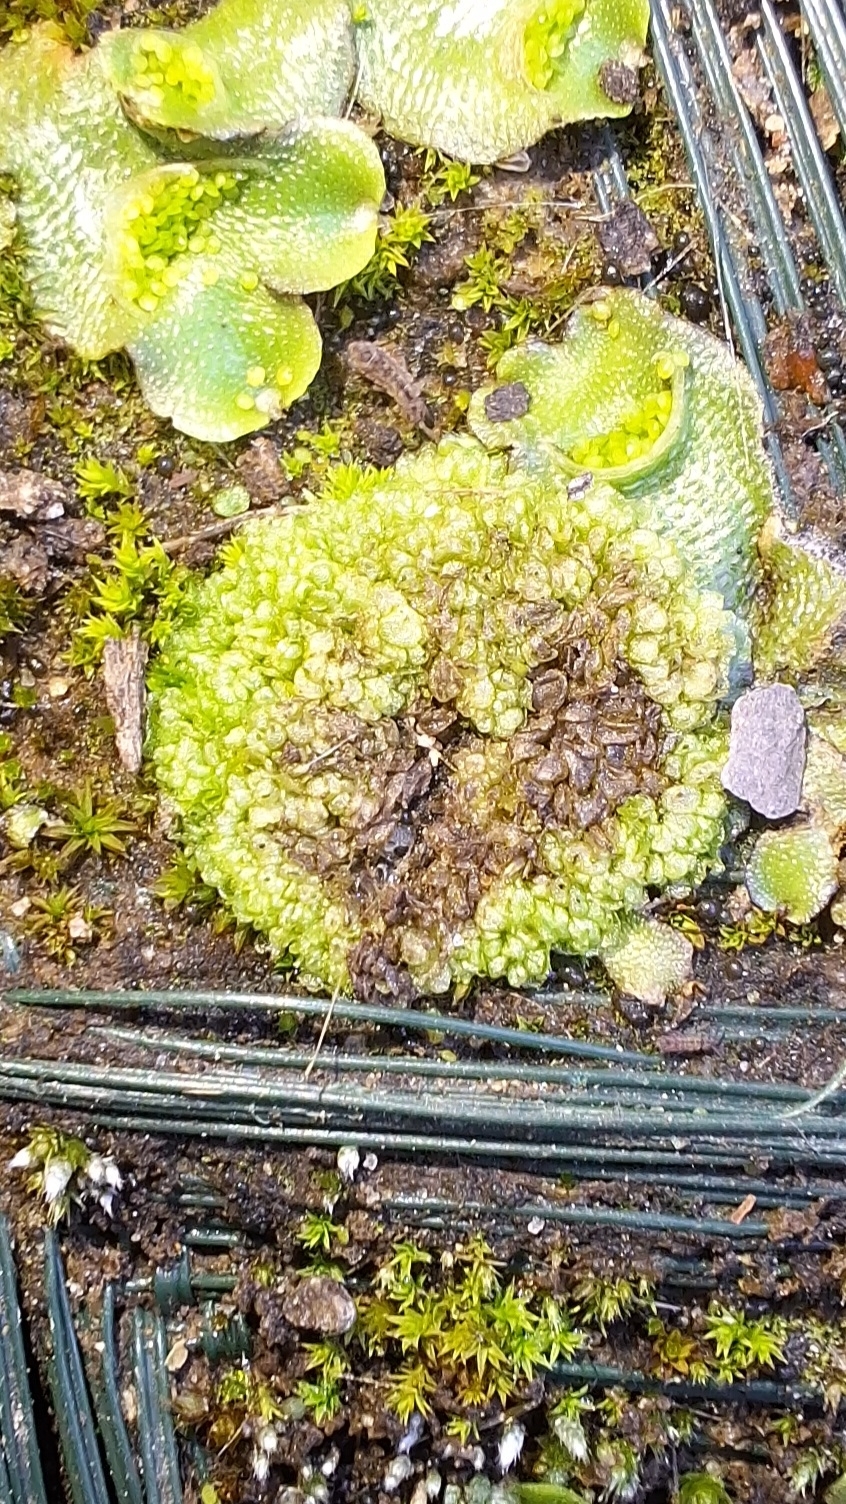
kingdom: Plantae
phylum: Marchantiophyta
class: Marchantiopsida
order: Sphaerocarpales
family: Sphaerocarpaceae
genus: Sphaerocarpos
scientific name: Sphaerocarpos texanus
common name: Texas balloonwort
